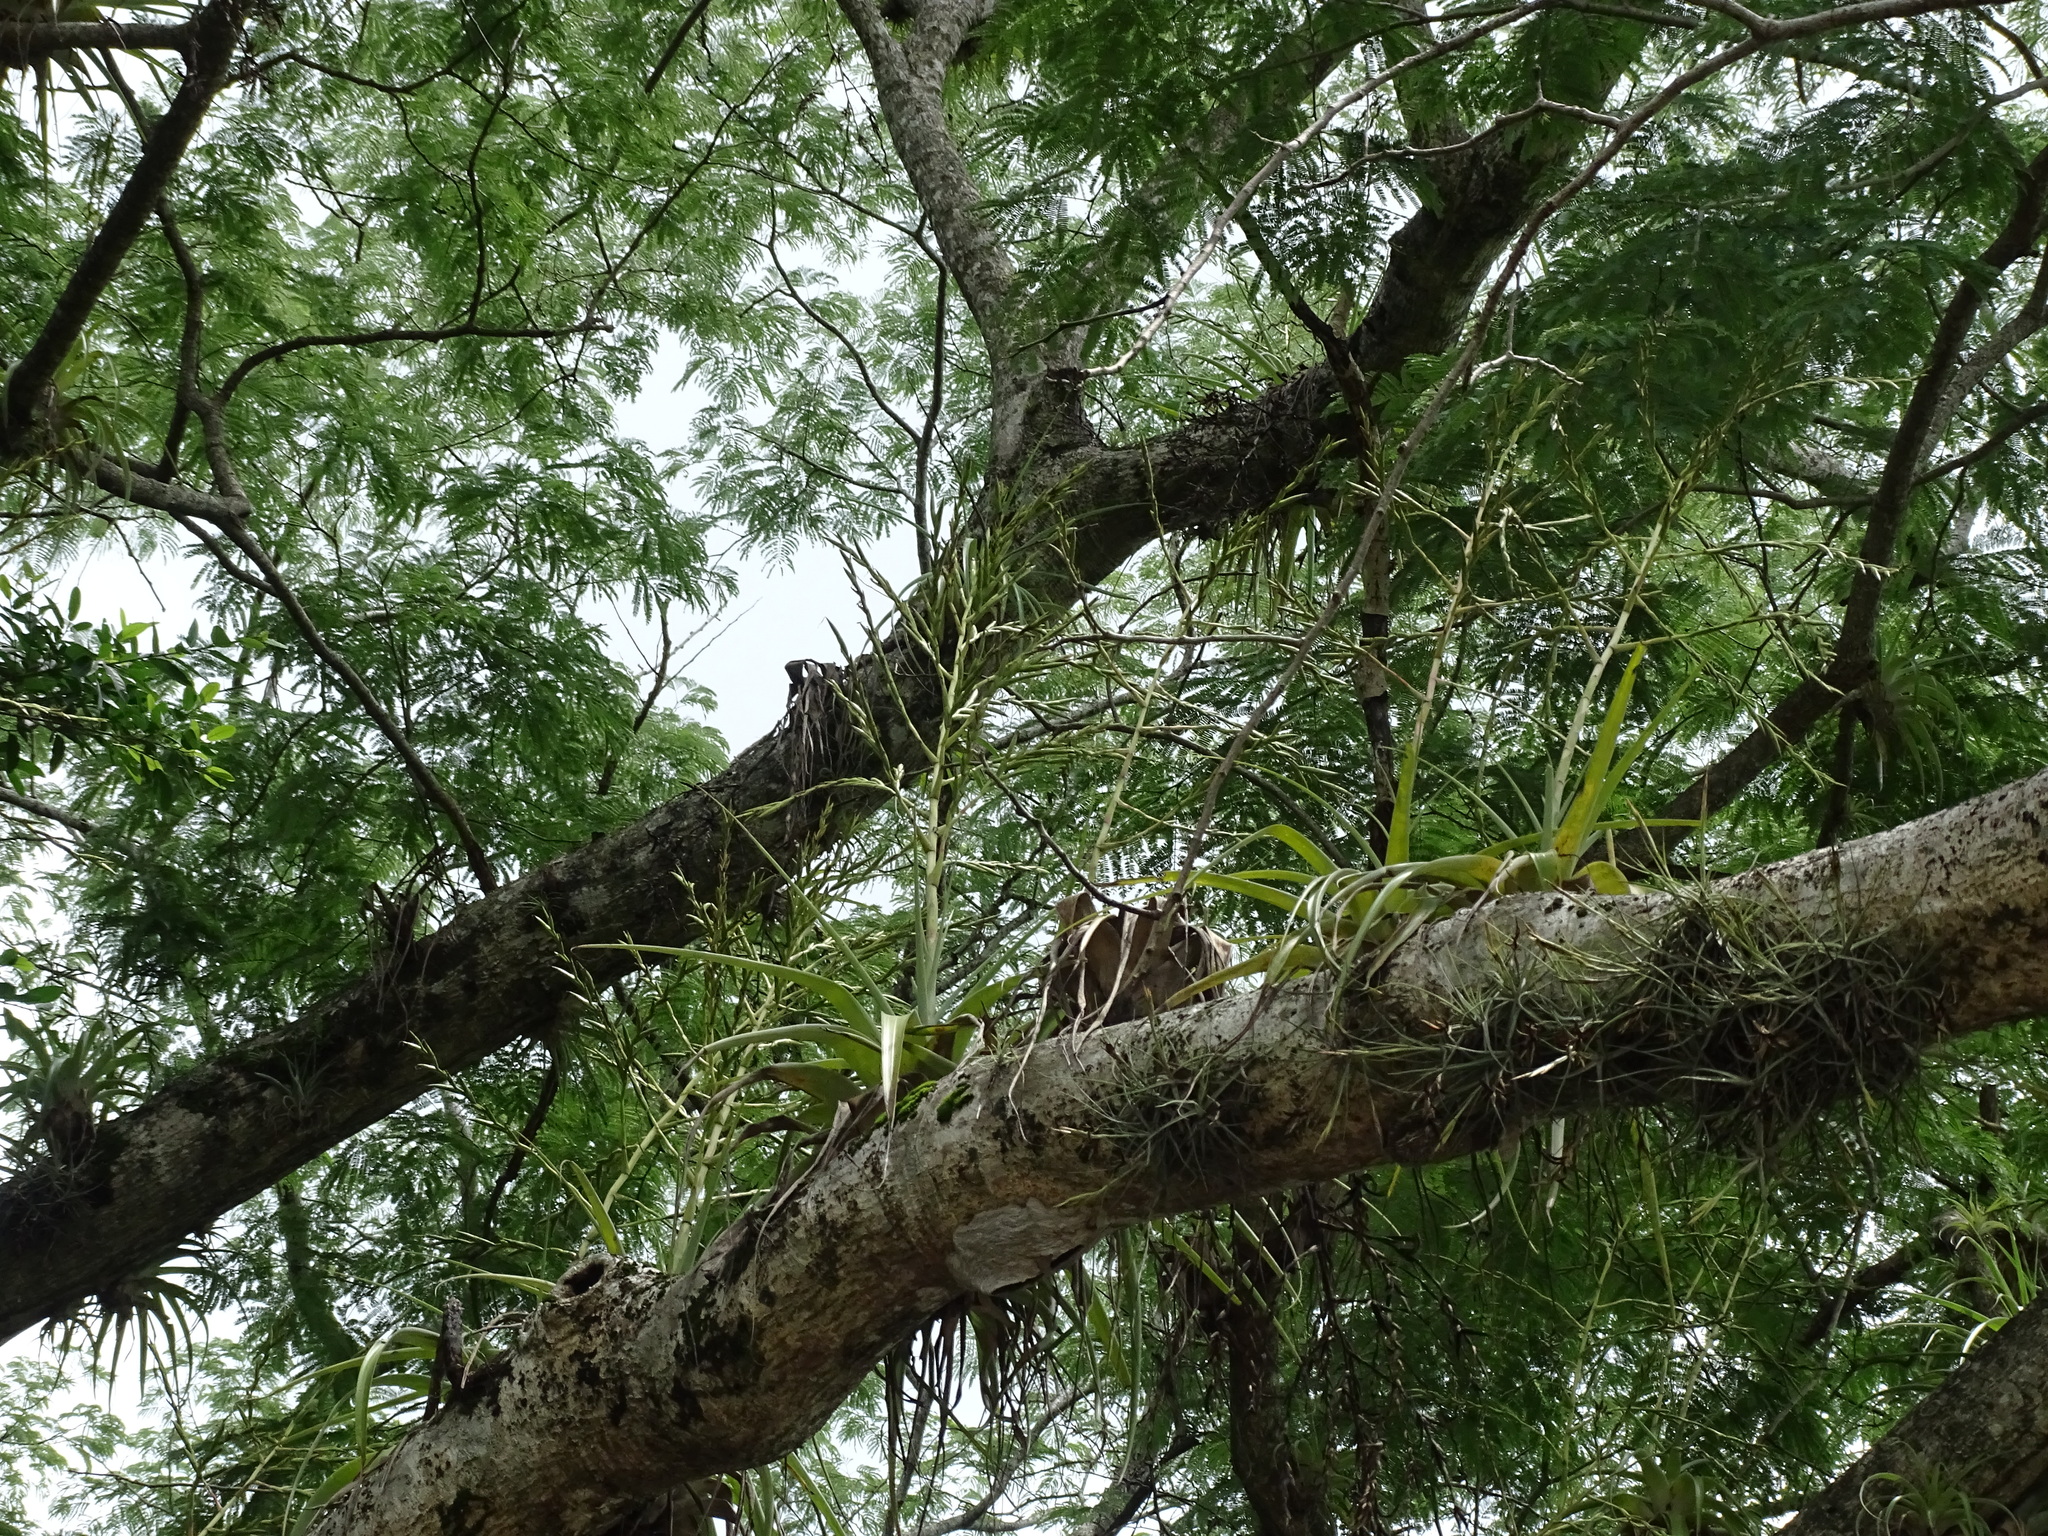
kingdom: Plantae
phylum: Tracheophyta
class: Liliopsida
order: Poales
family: Bromeliaceae
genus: Tillandsia
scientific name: Tillandsia utriculata
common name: Wild pine
